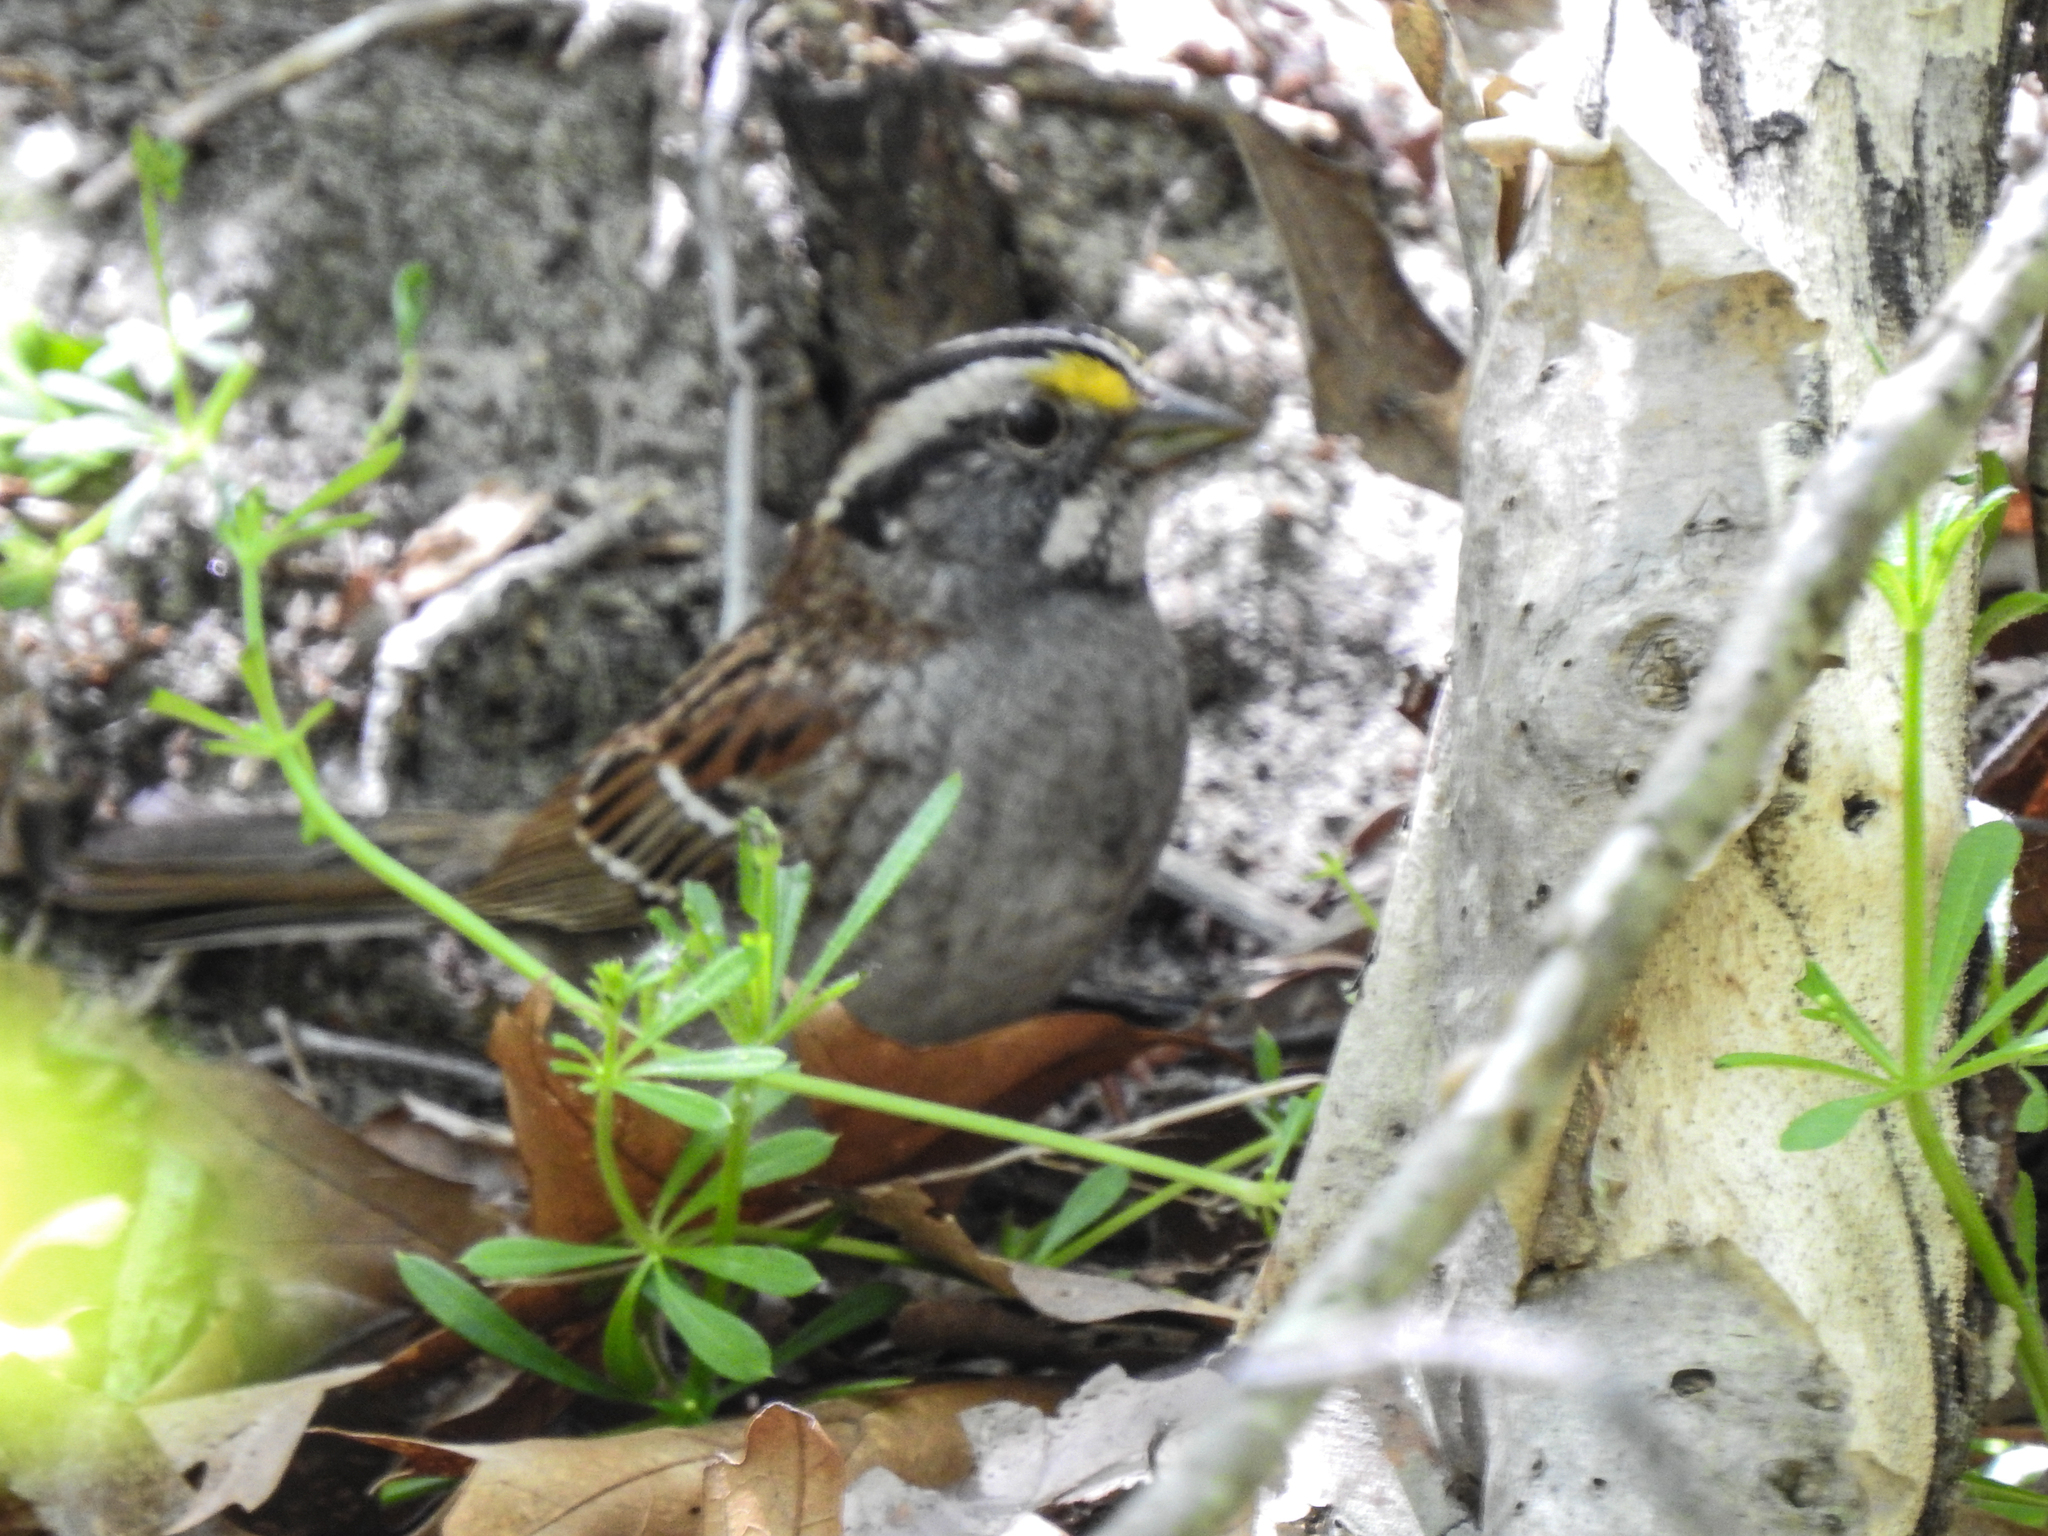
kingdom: Animalia
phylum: Chordata
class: Aves
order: Passeriformes
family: Passerellidae
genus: Zonotrichia
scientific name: Zonotrichia albicollis
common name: White-throated sparrow
